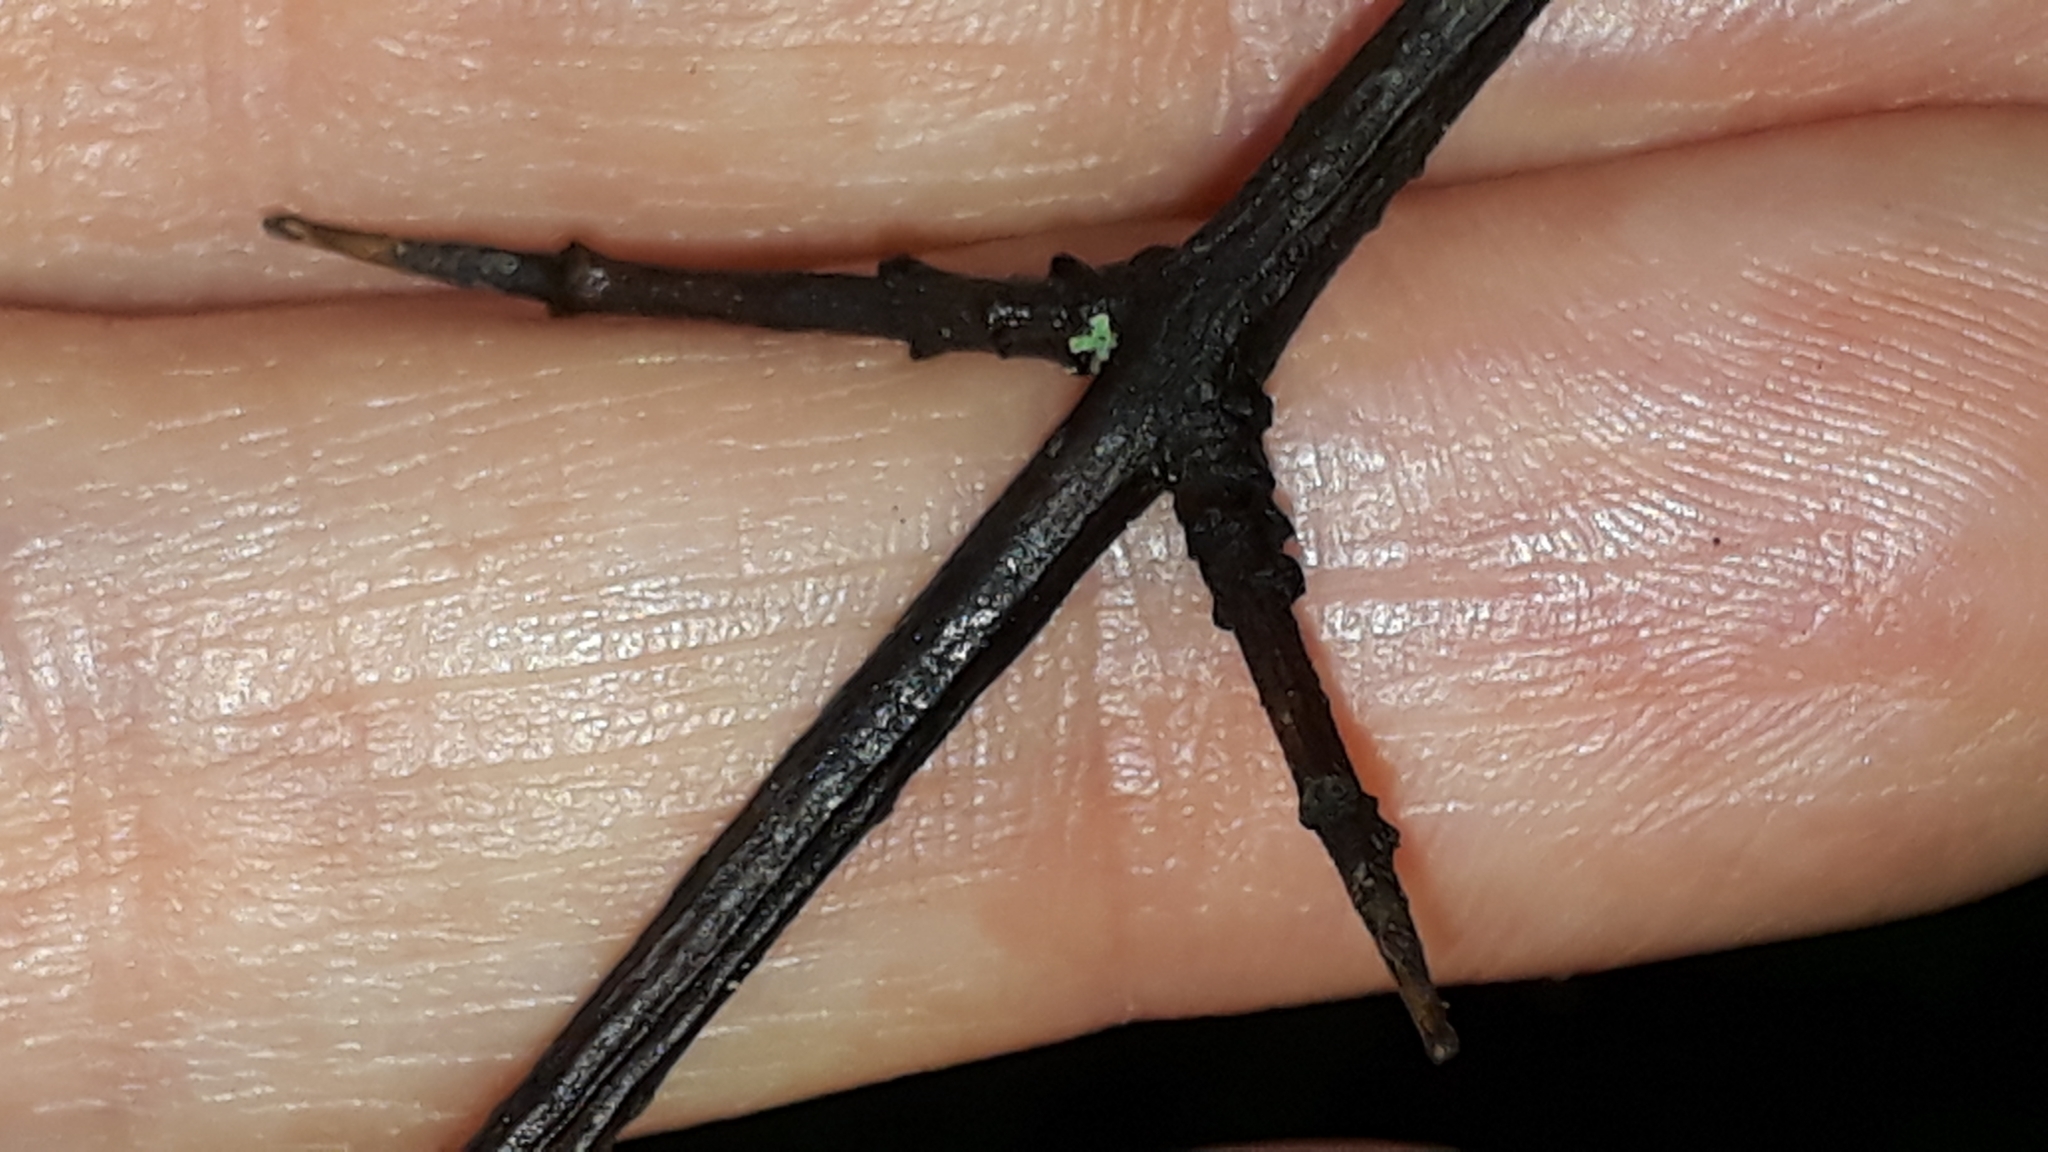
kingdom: Plantae
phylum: Tracheophyta
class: Magnoliopsida
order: Rosales
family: Rhamnaceae
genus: Rhamnus
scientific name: Rhamnus cathartica
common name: Common buckthorn
